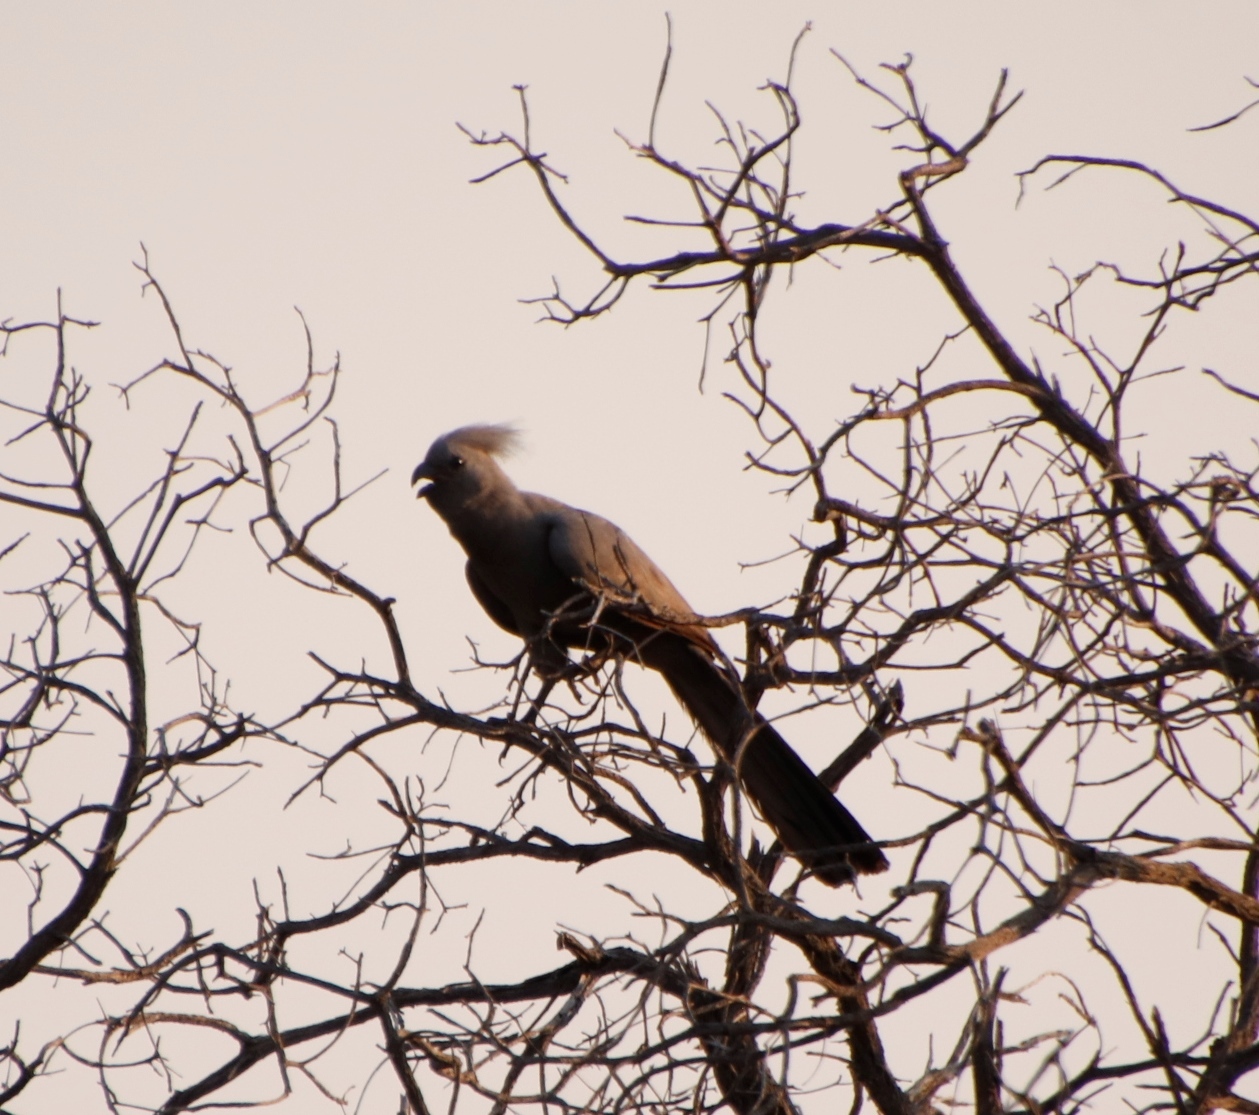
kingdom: Animalia
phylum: Chordata
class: Aves
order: Musophagiformes
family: Musophagidae
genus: Corythaixoides
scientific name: Corythaixoides concolor
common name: Grey go-away-bird
